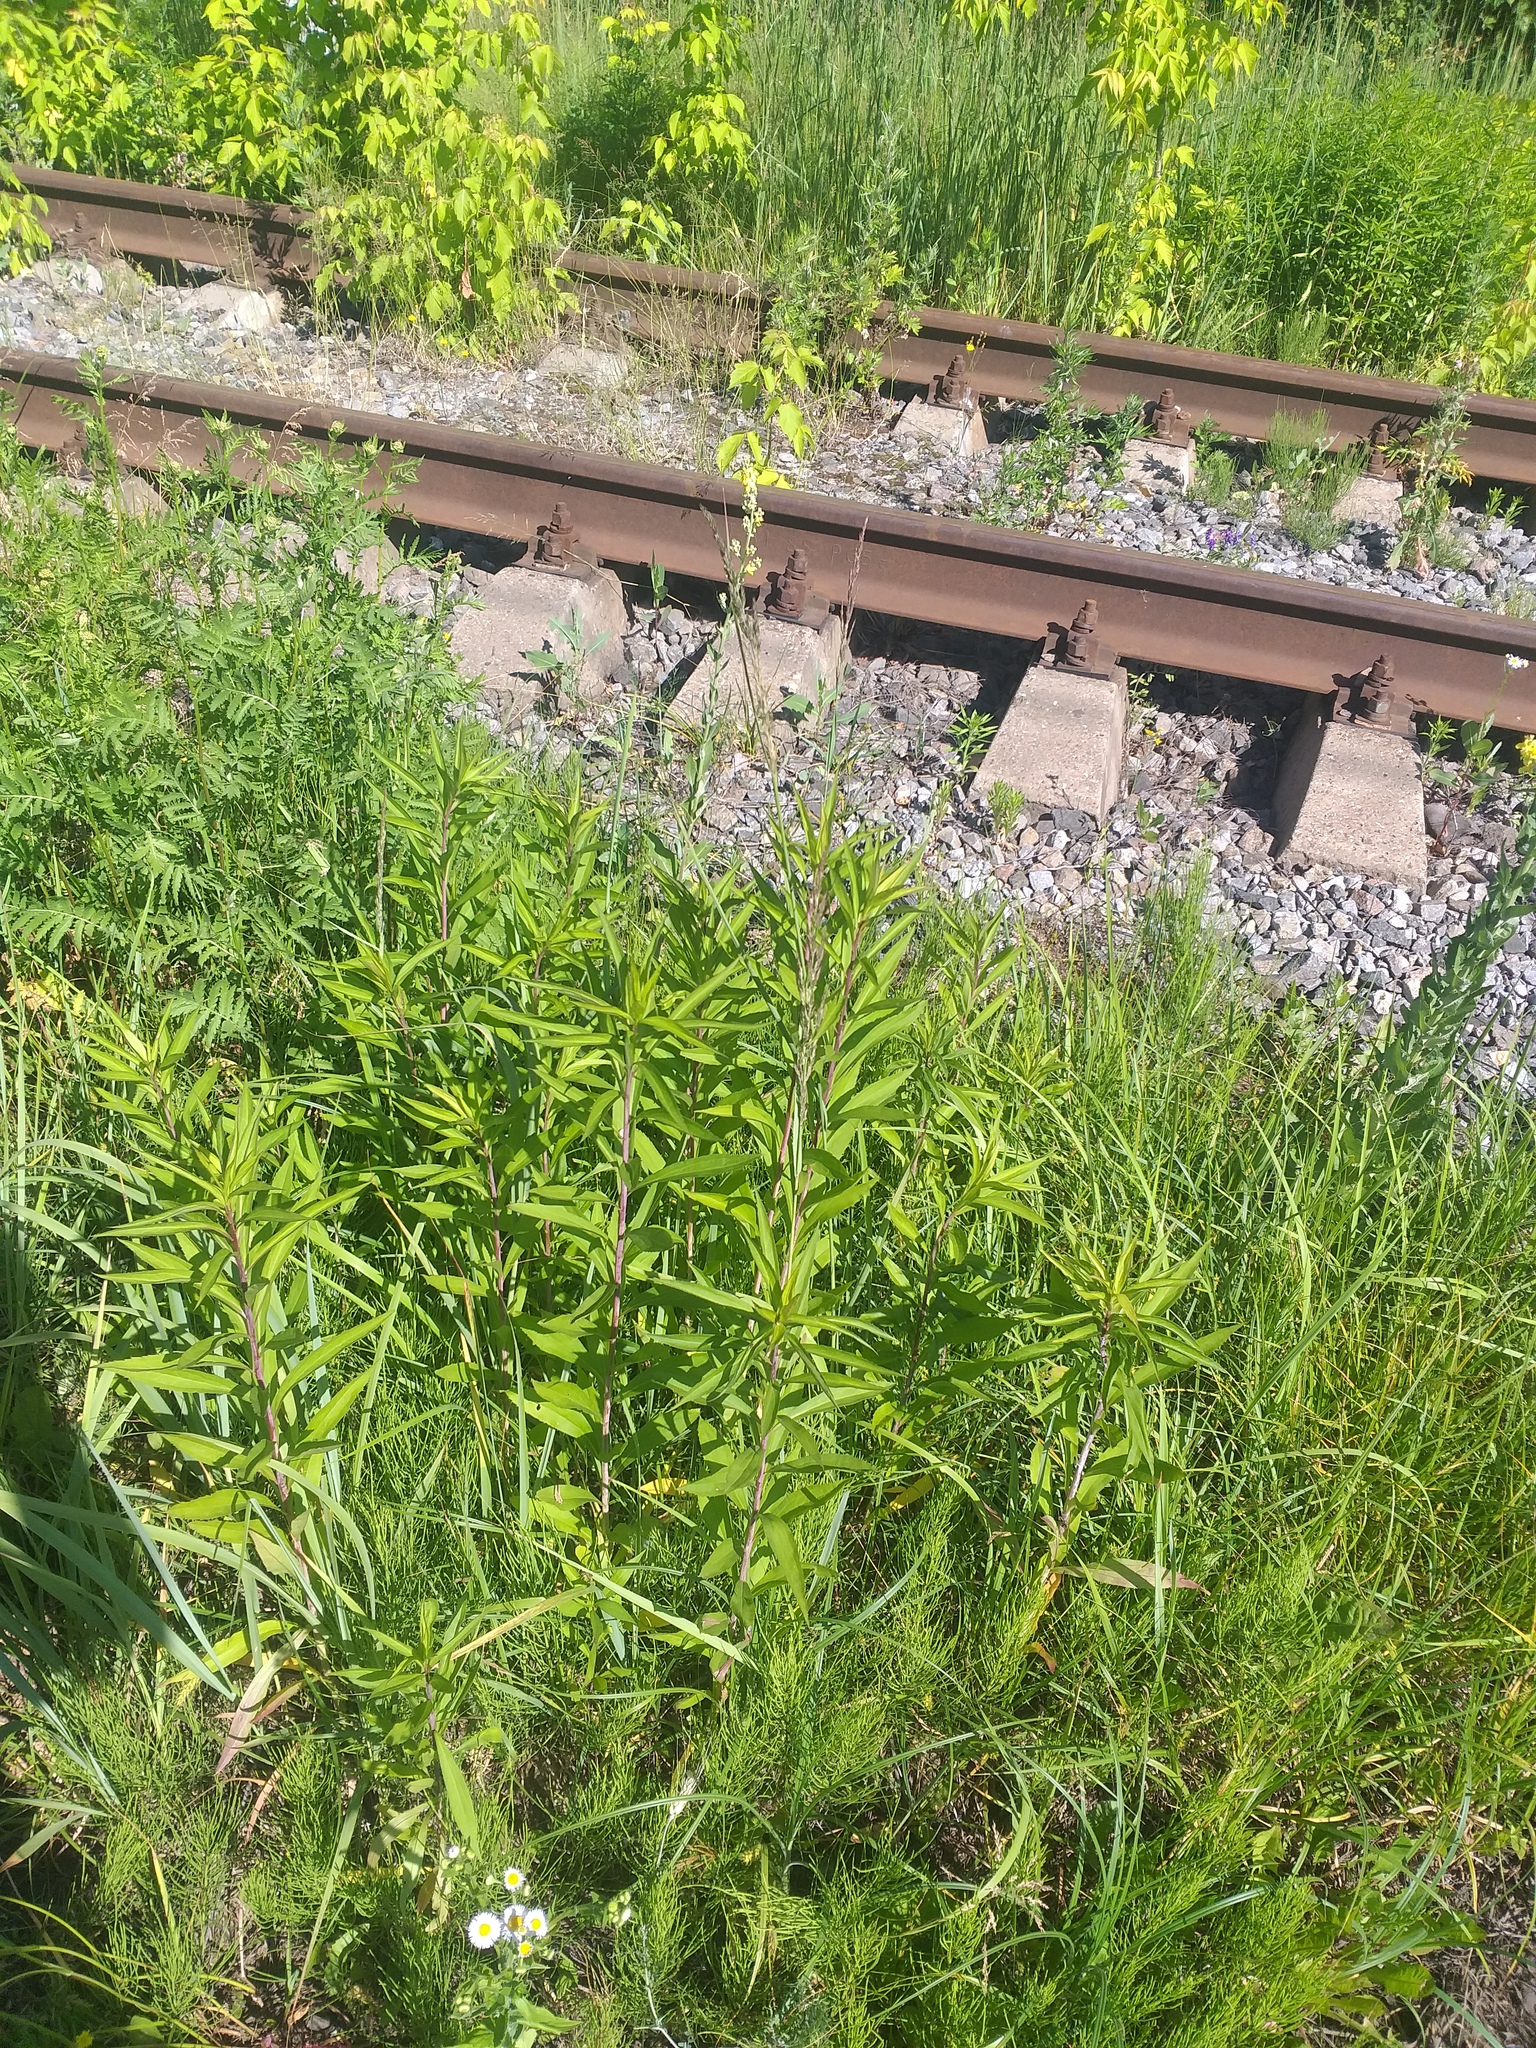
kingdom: Plantae
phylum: Tracheophyta
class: Magnoliopsida
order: Asterales
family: Asteraceae
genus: Solidago
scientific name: Solidago gigantea
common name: Giant goldenrod
